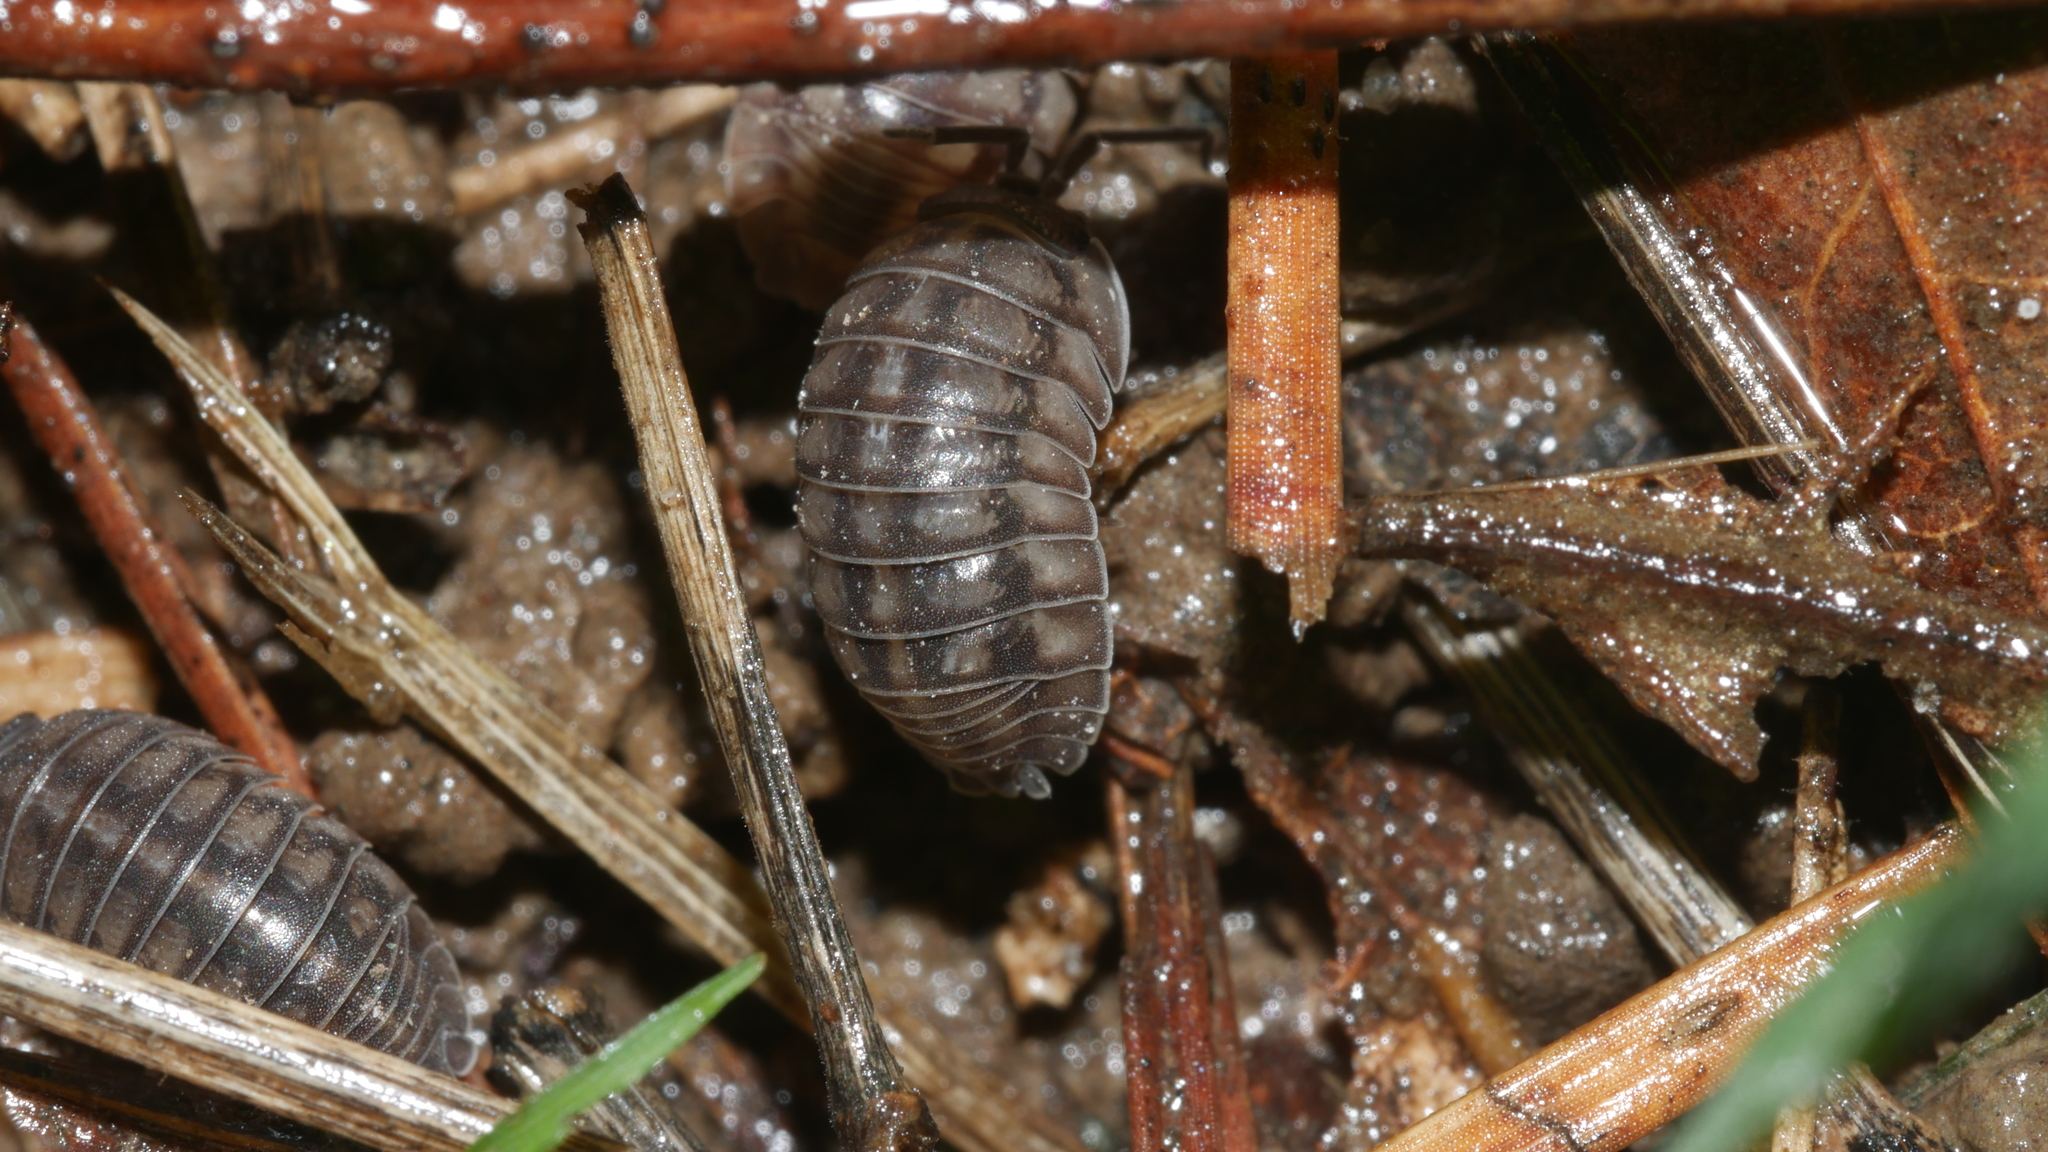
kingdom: Animalia
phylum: Arthropoda
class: Malacostraca
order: Isopoda
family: Armadillidiidae
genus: Armadillidium
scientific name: Armadillidium nasatum
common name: Isopod
